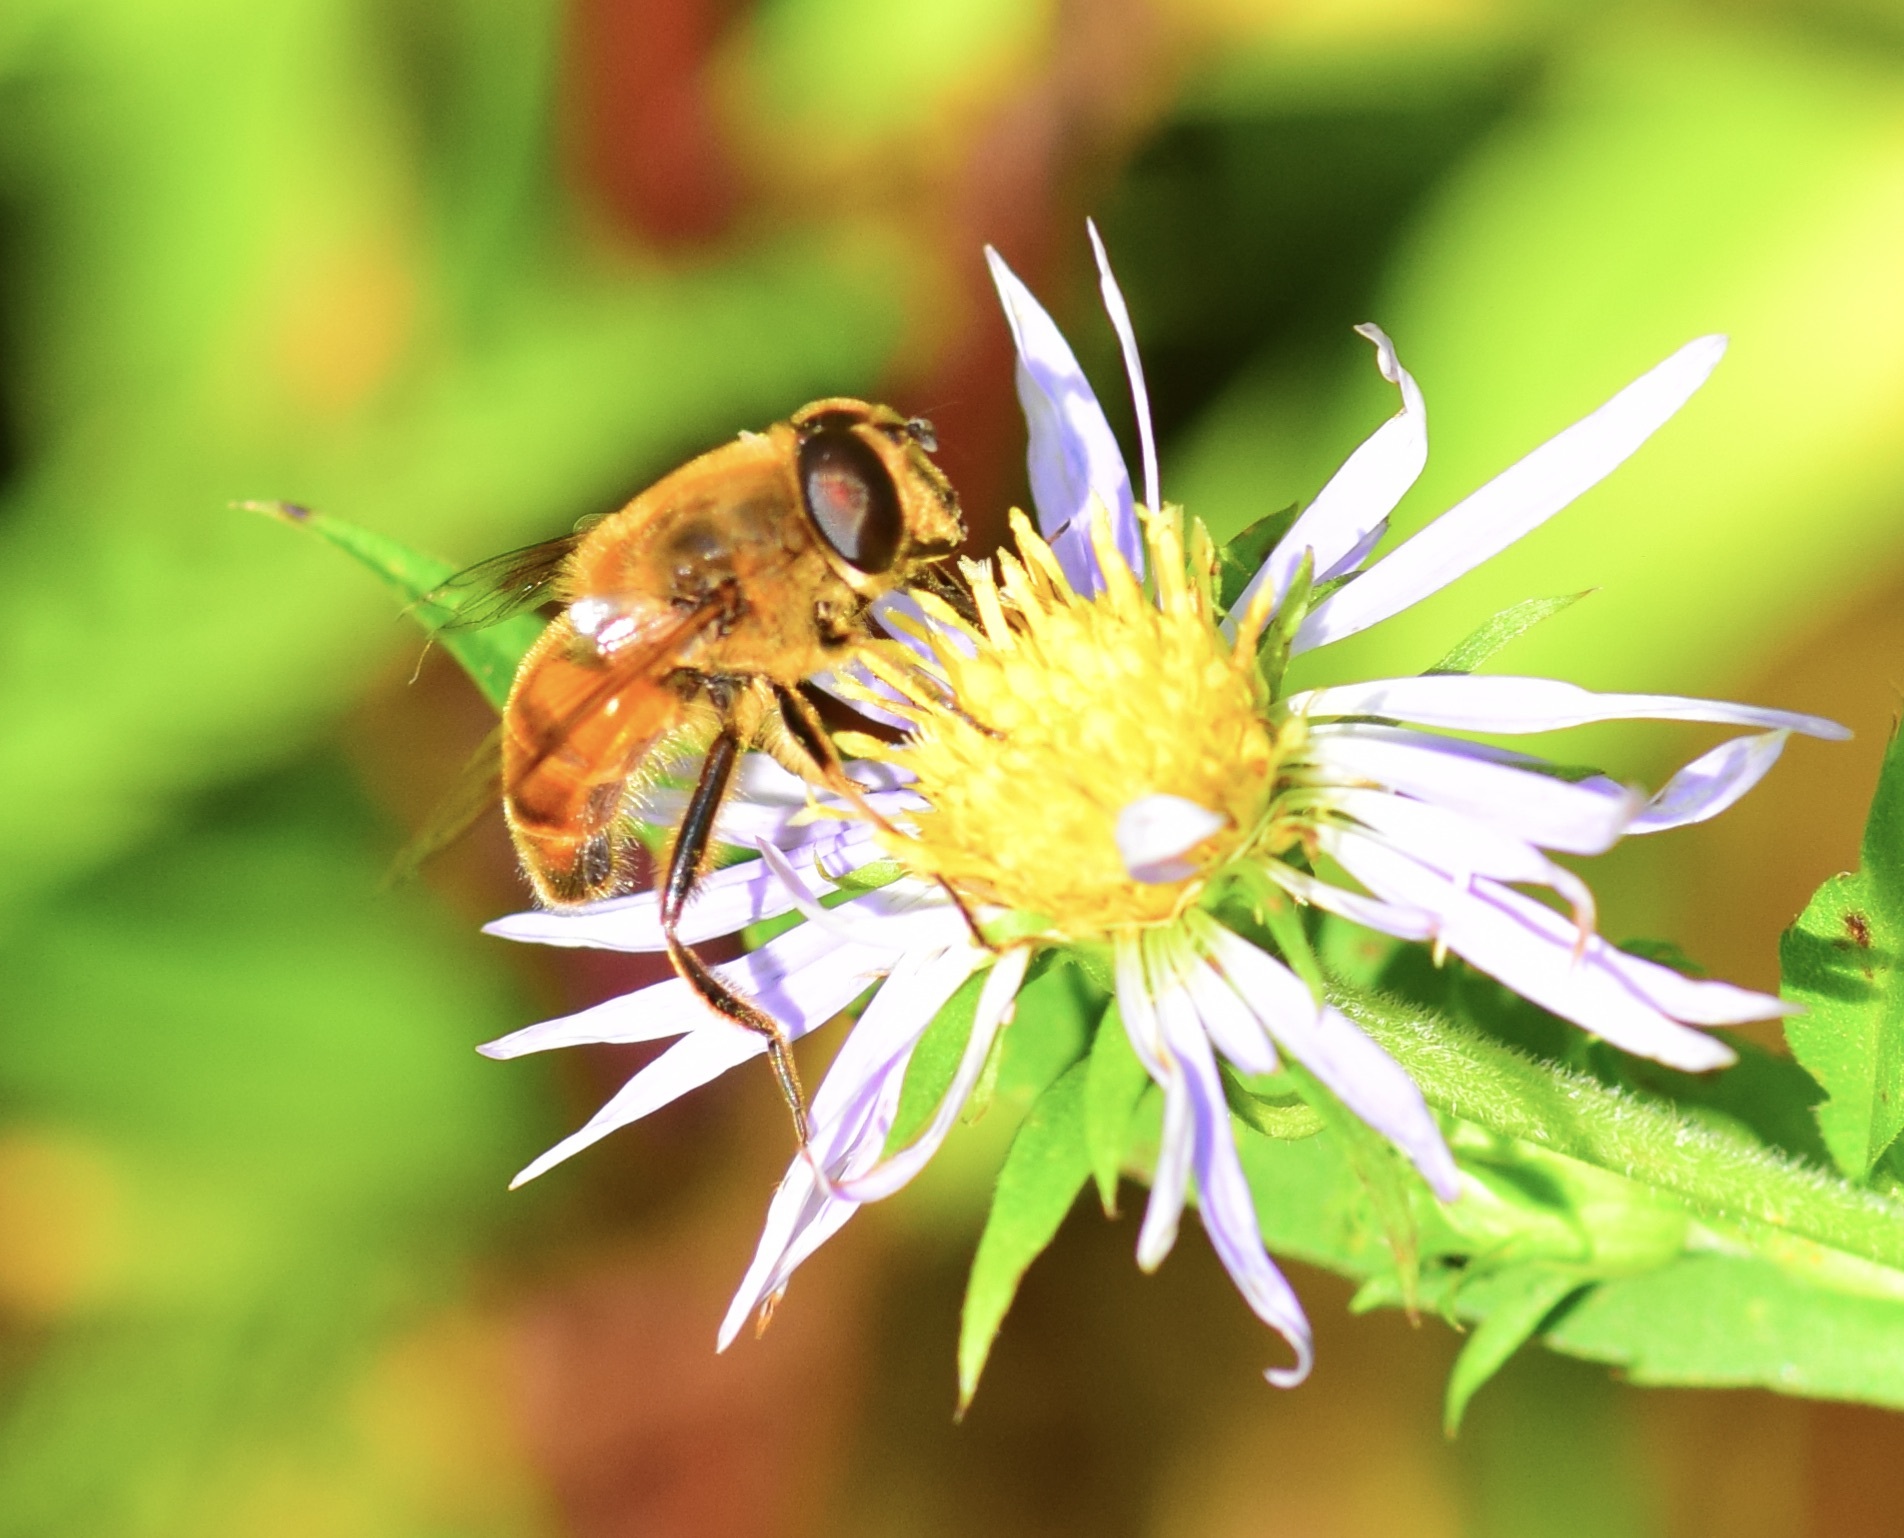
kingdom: Animalia
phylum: Arthropoda
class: Insecta
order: Diptera
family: Syrphidae
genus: Eristalis
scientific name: Eristalis tenax
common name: Drone fly
